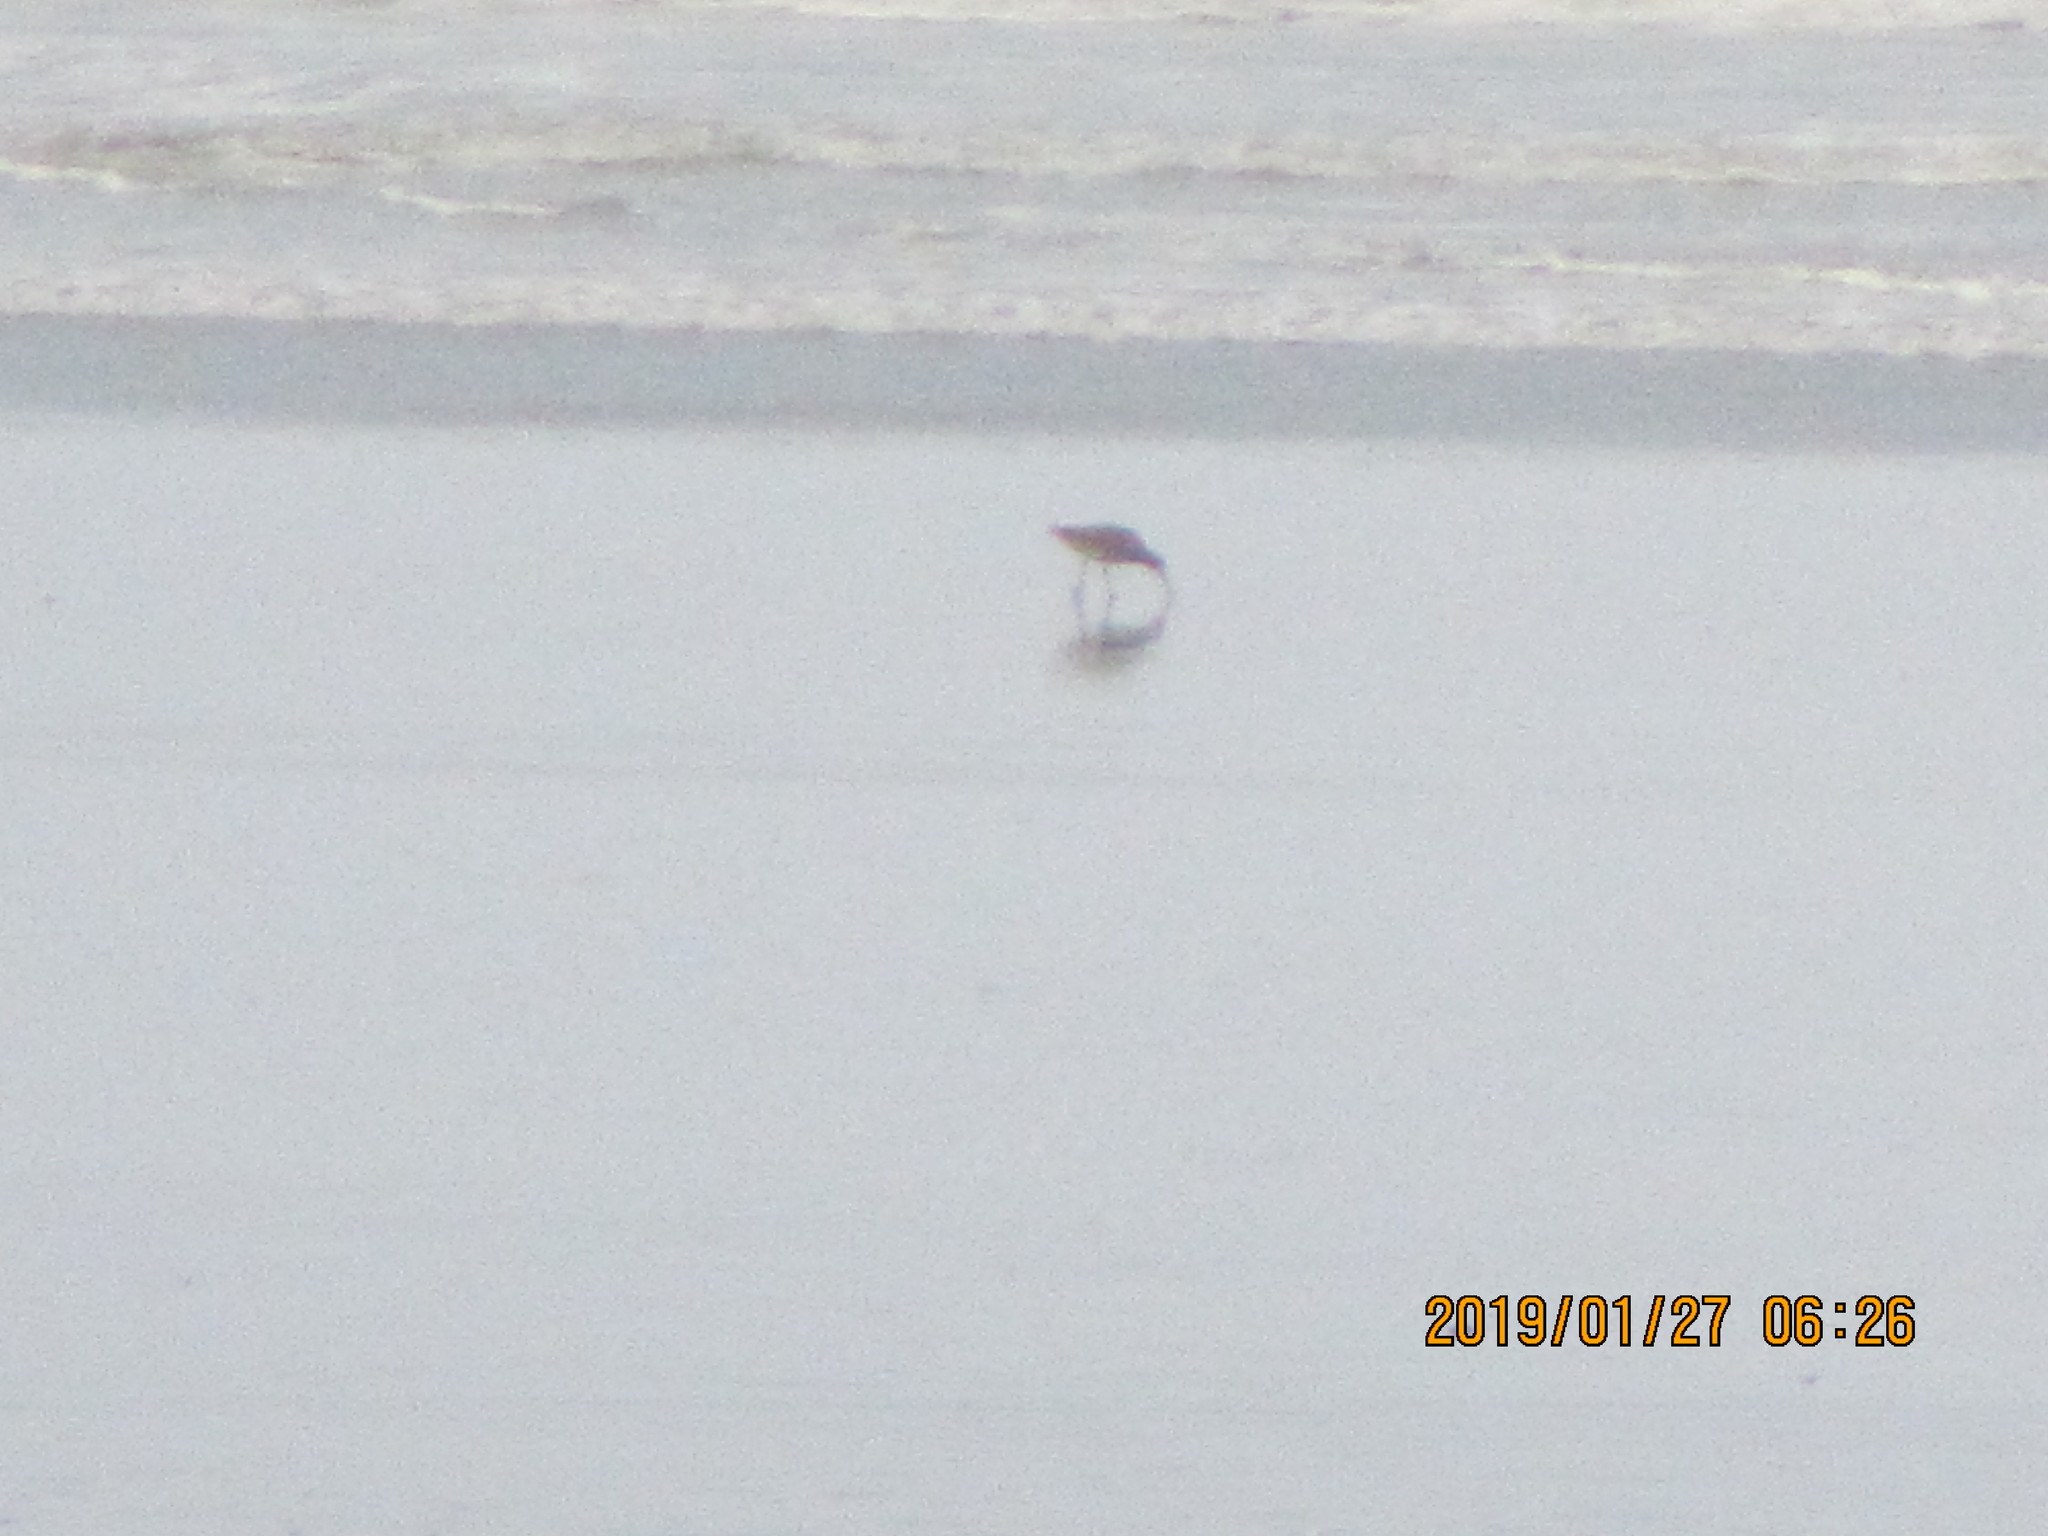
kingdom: Animalia
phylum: Chordata
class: Aves
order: Charadriiformes
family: Scolopacidae
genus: Limosa
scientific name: Limosa lapponica
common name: Bar-tailed godwit
